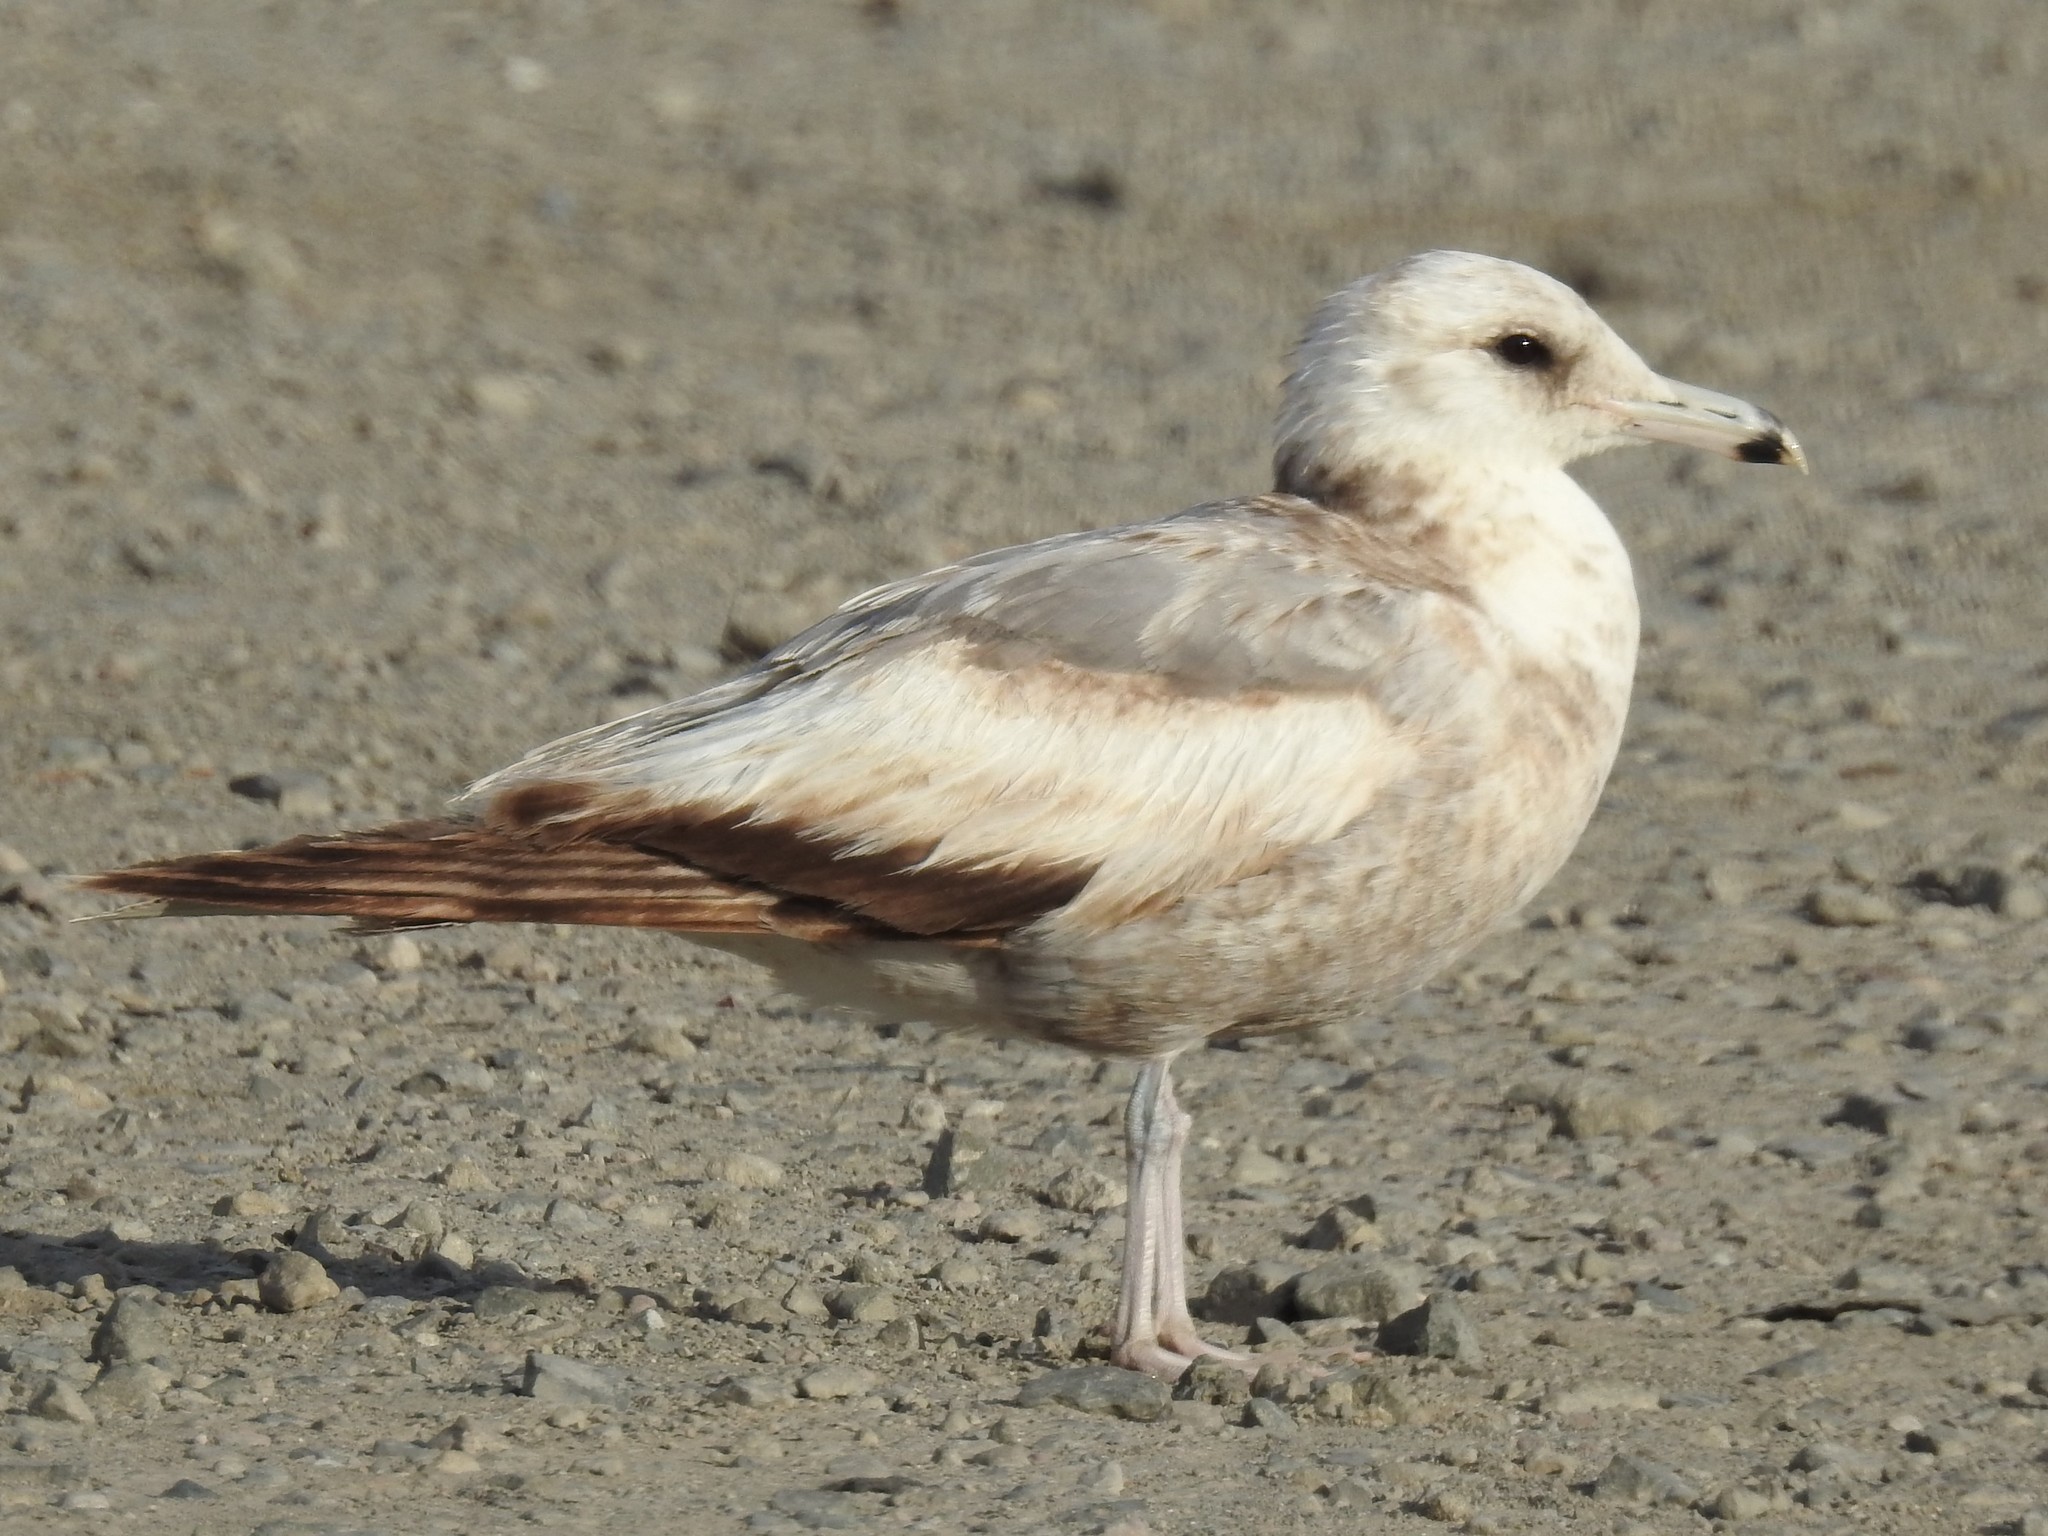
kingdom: Animalia
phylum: Chordata
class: Aves
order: Charadriiformes
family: Laridae
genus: Larus
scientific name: Larus californicus
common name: California gull
